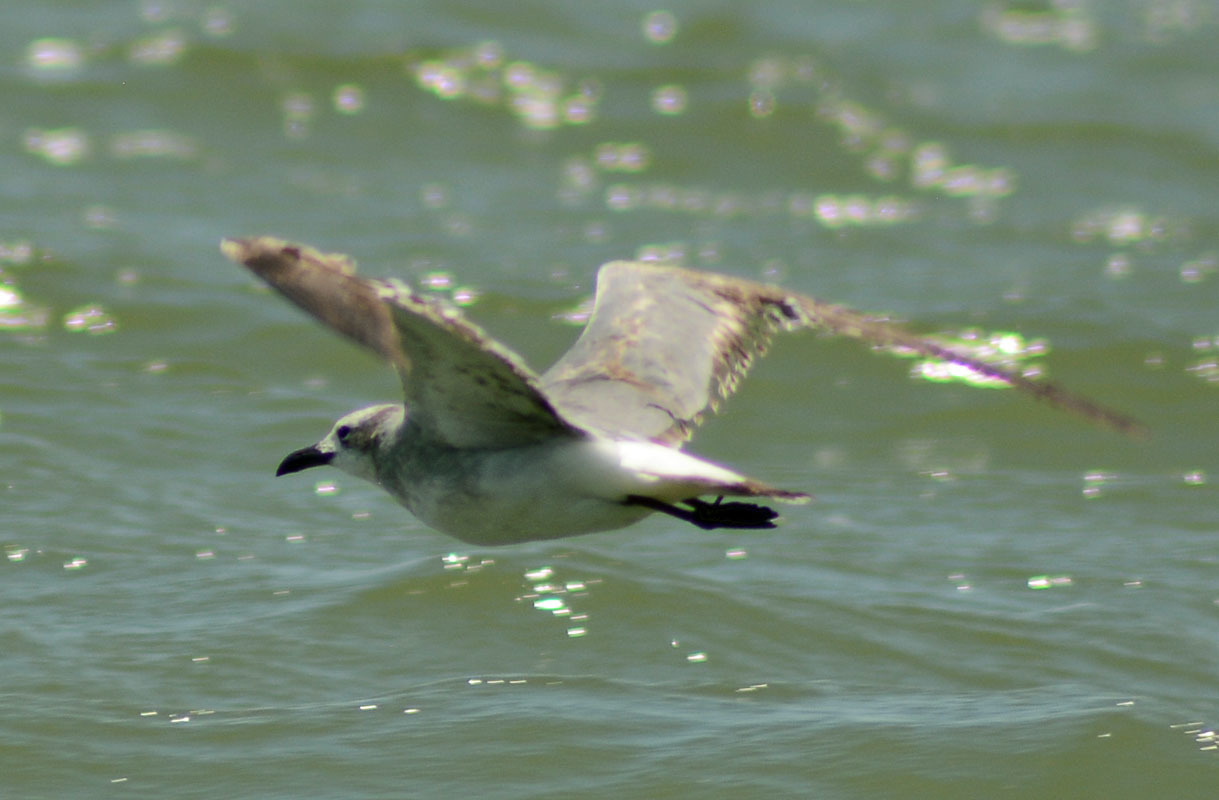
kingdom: Animalia
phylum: Chordata
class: Aves
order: Charadriiformes
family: Laridae
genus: Leucophaeus
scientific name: Leucophaeus atricilla
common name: Laughing gull
